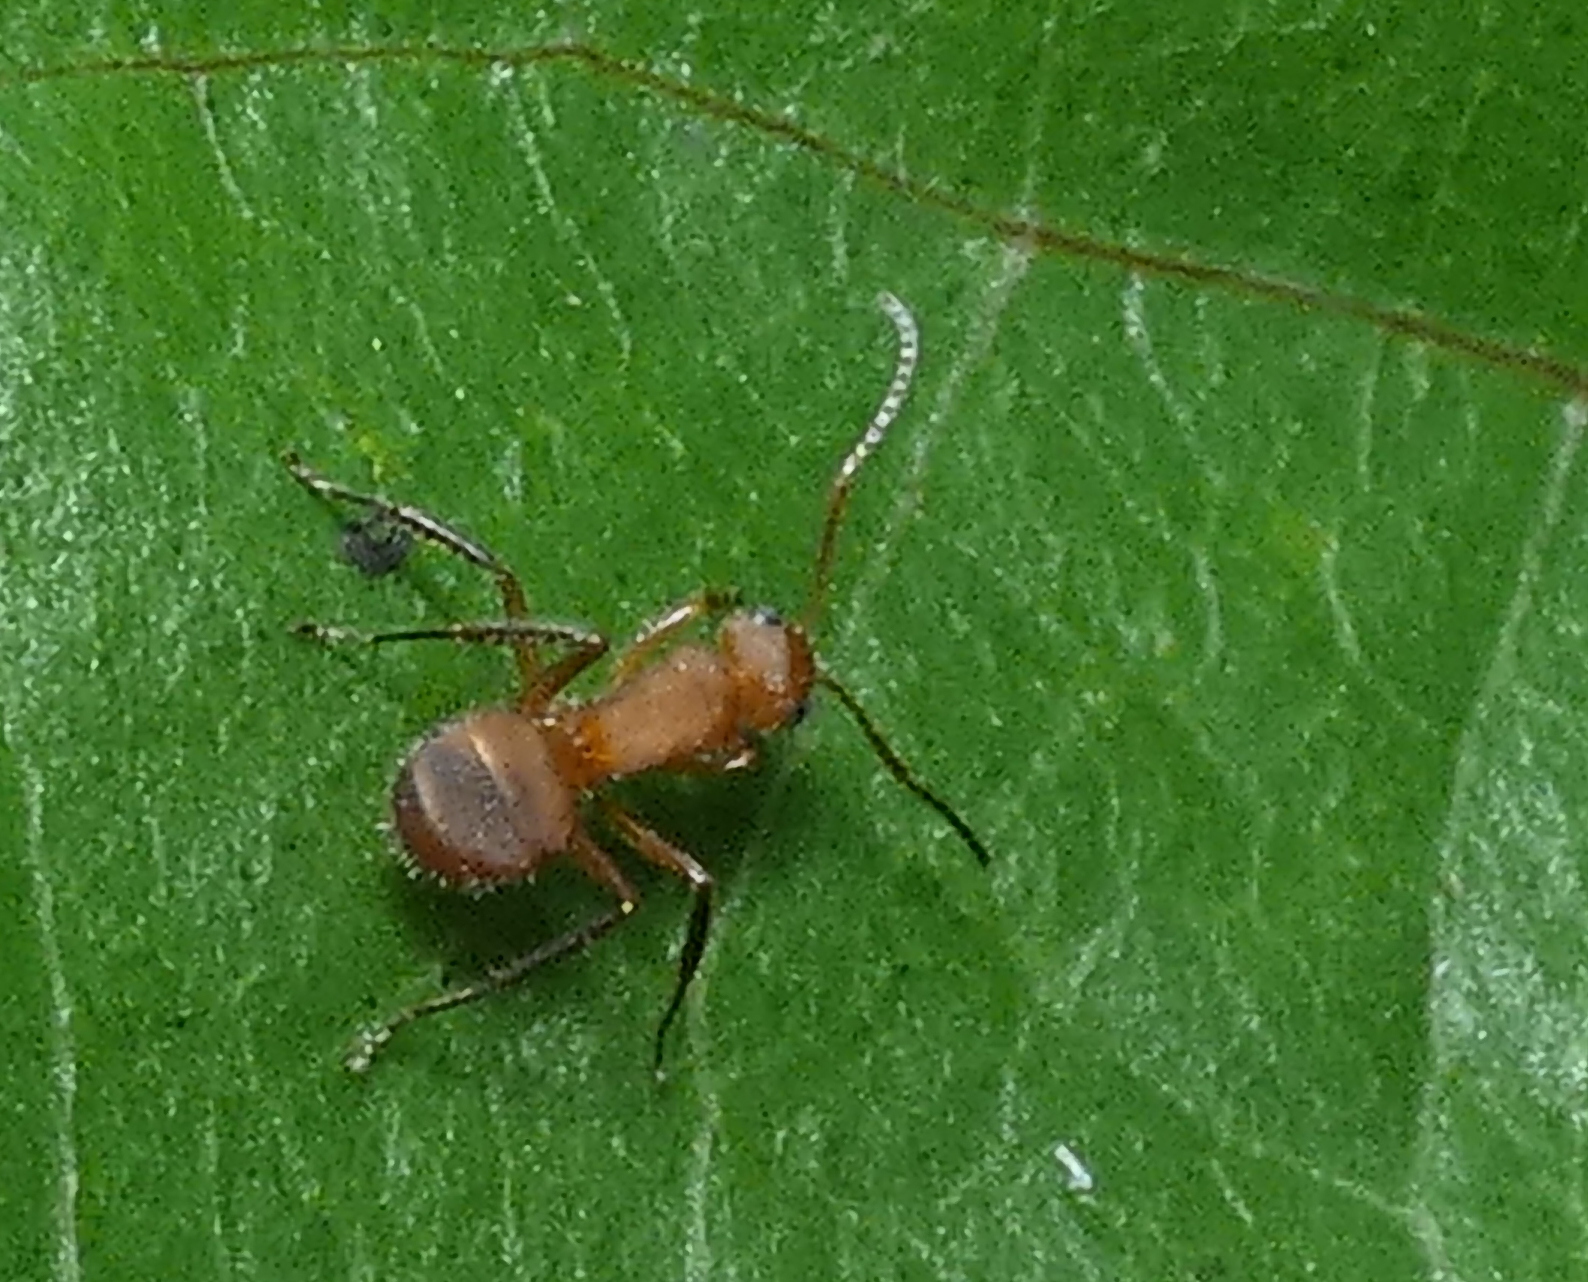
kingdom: Animalia
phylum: Arthropoda
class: Insecta
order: Hymenoptera
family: Formicidae
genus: Camponotus
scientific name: Camponotus rectangularis
